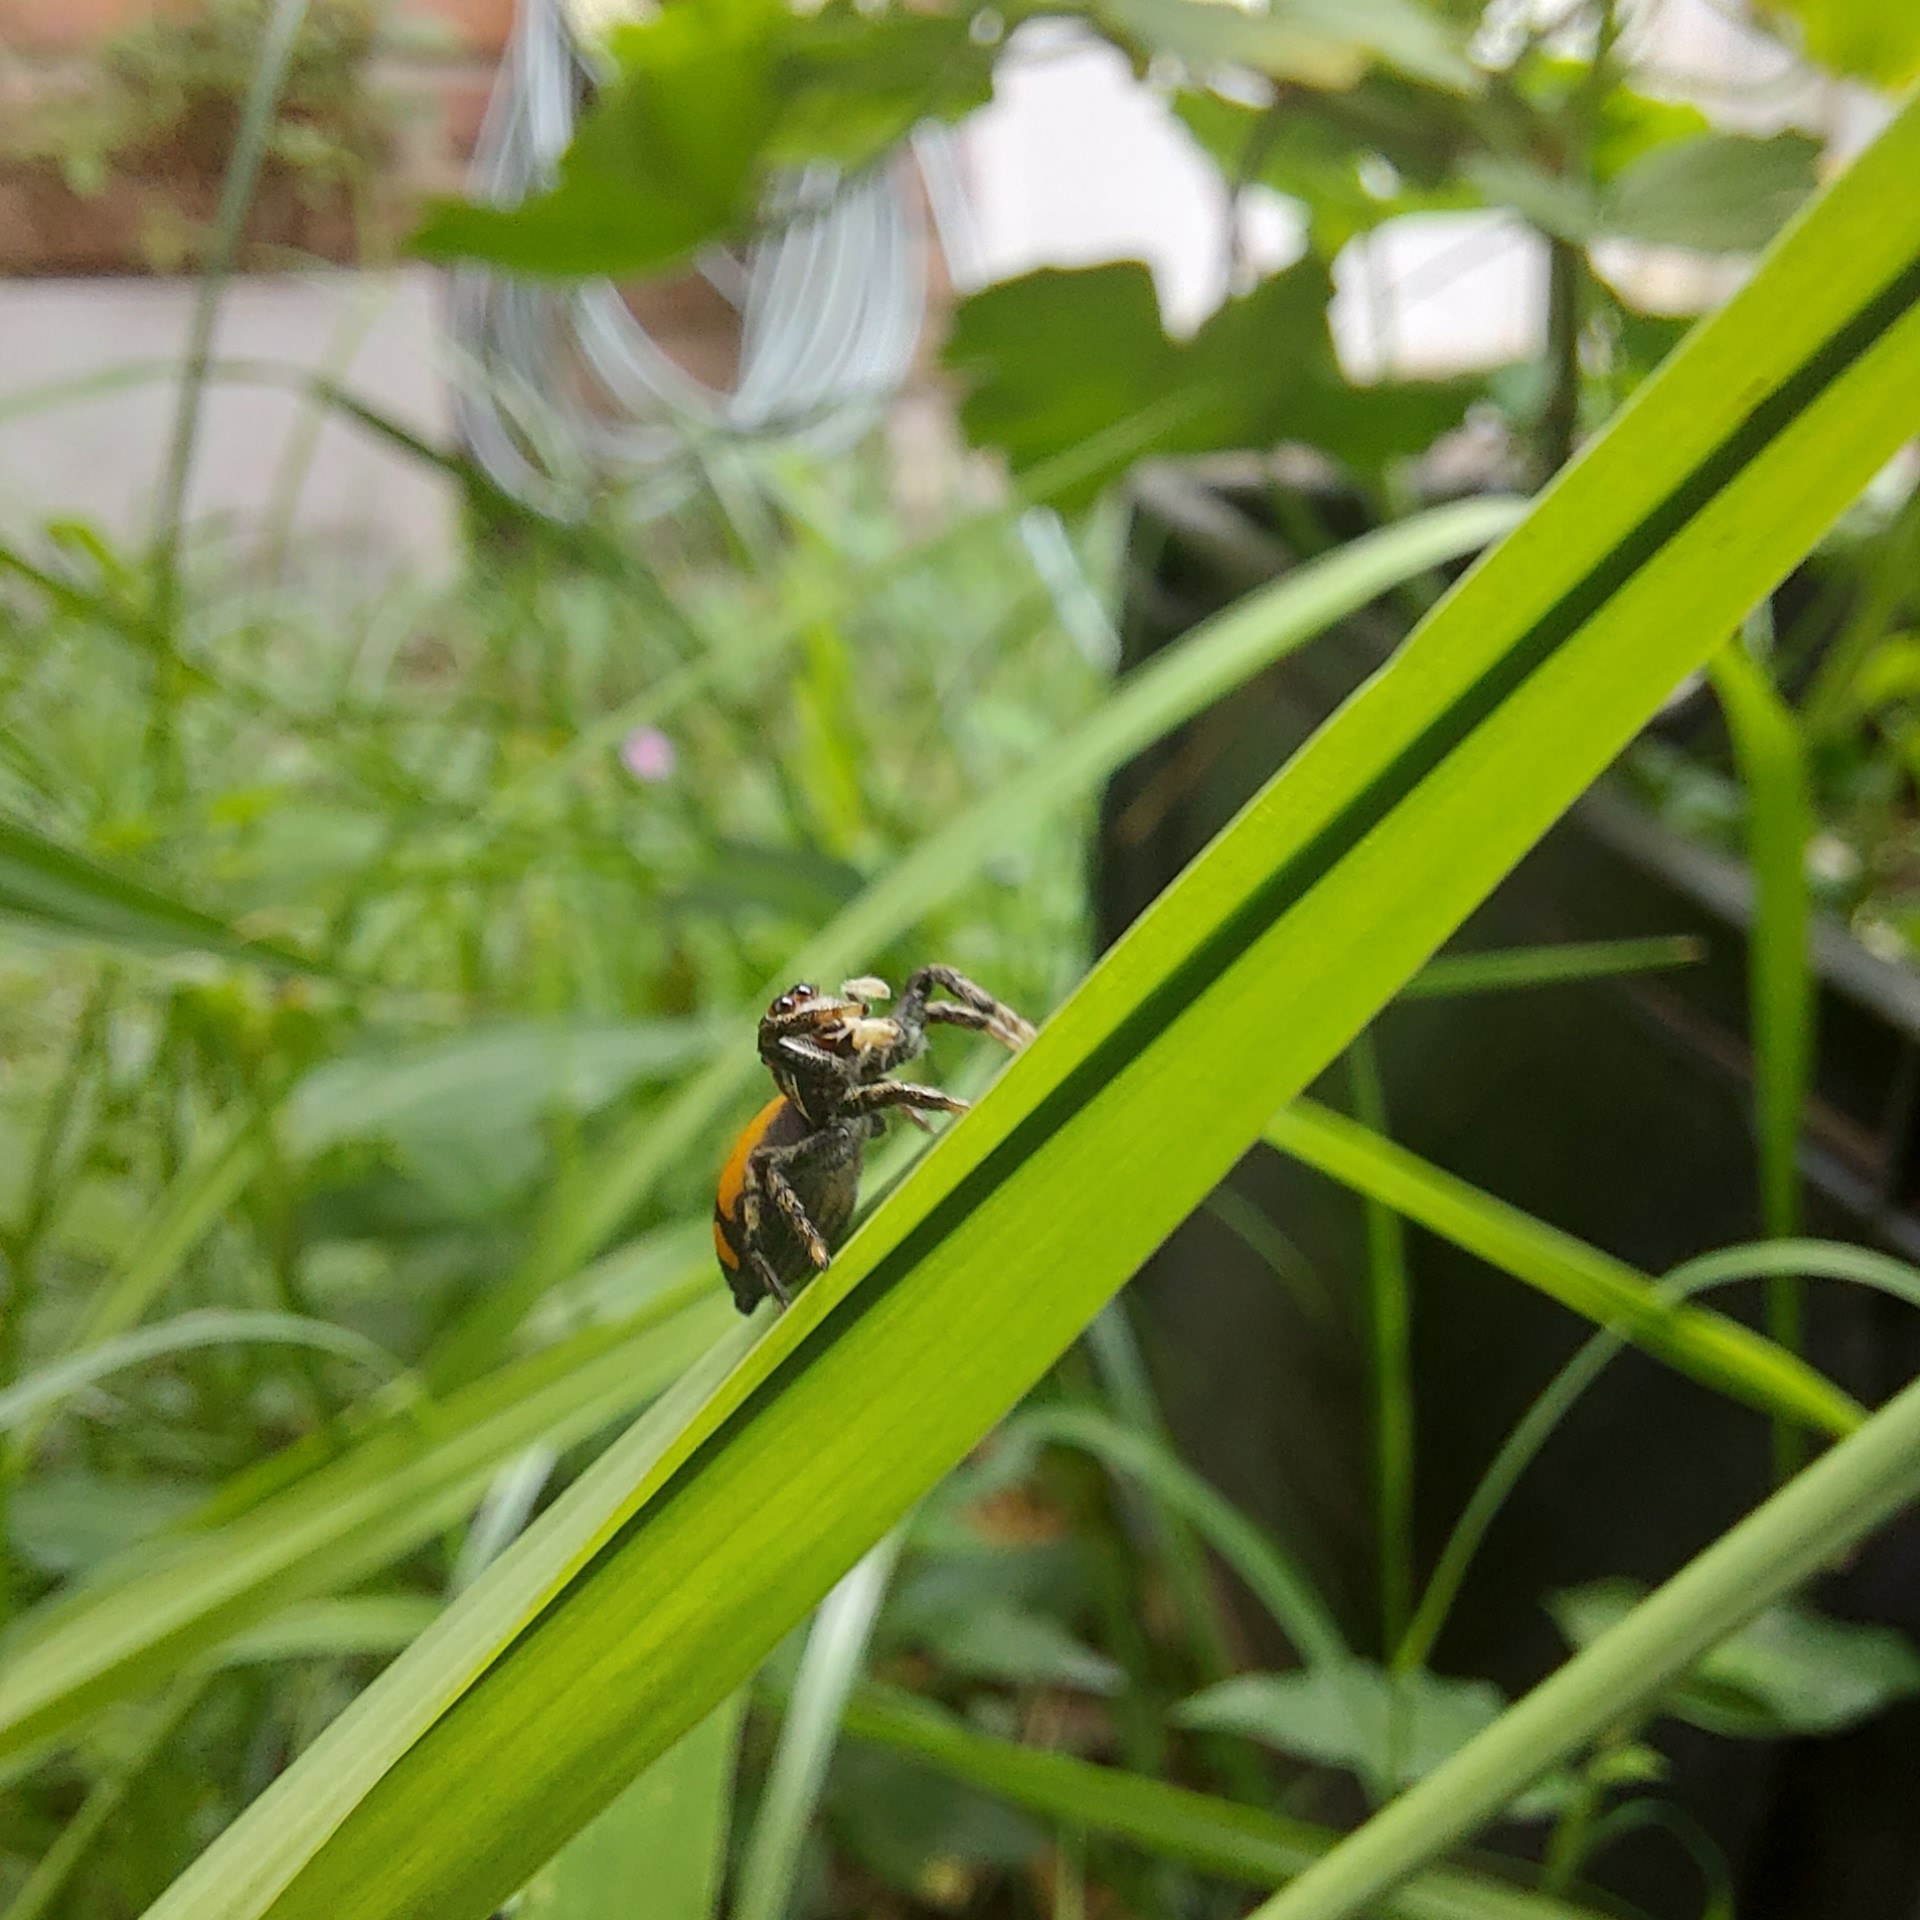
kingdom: Animalia
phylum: Arthropoda
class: Arachnida
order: Araneae
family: Salticidae
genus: Phiale
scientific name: Phiale roburifoliata
